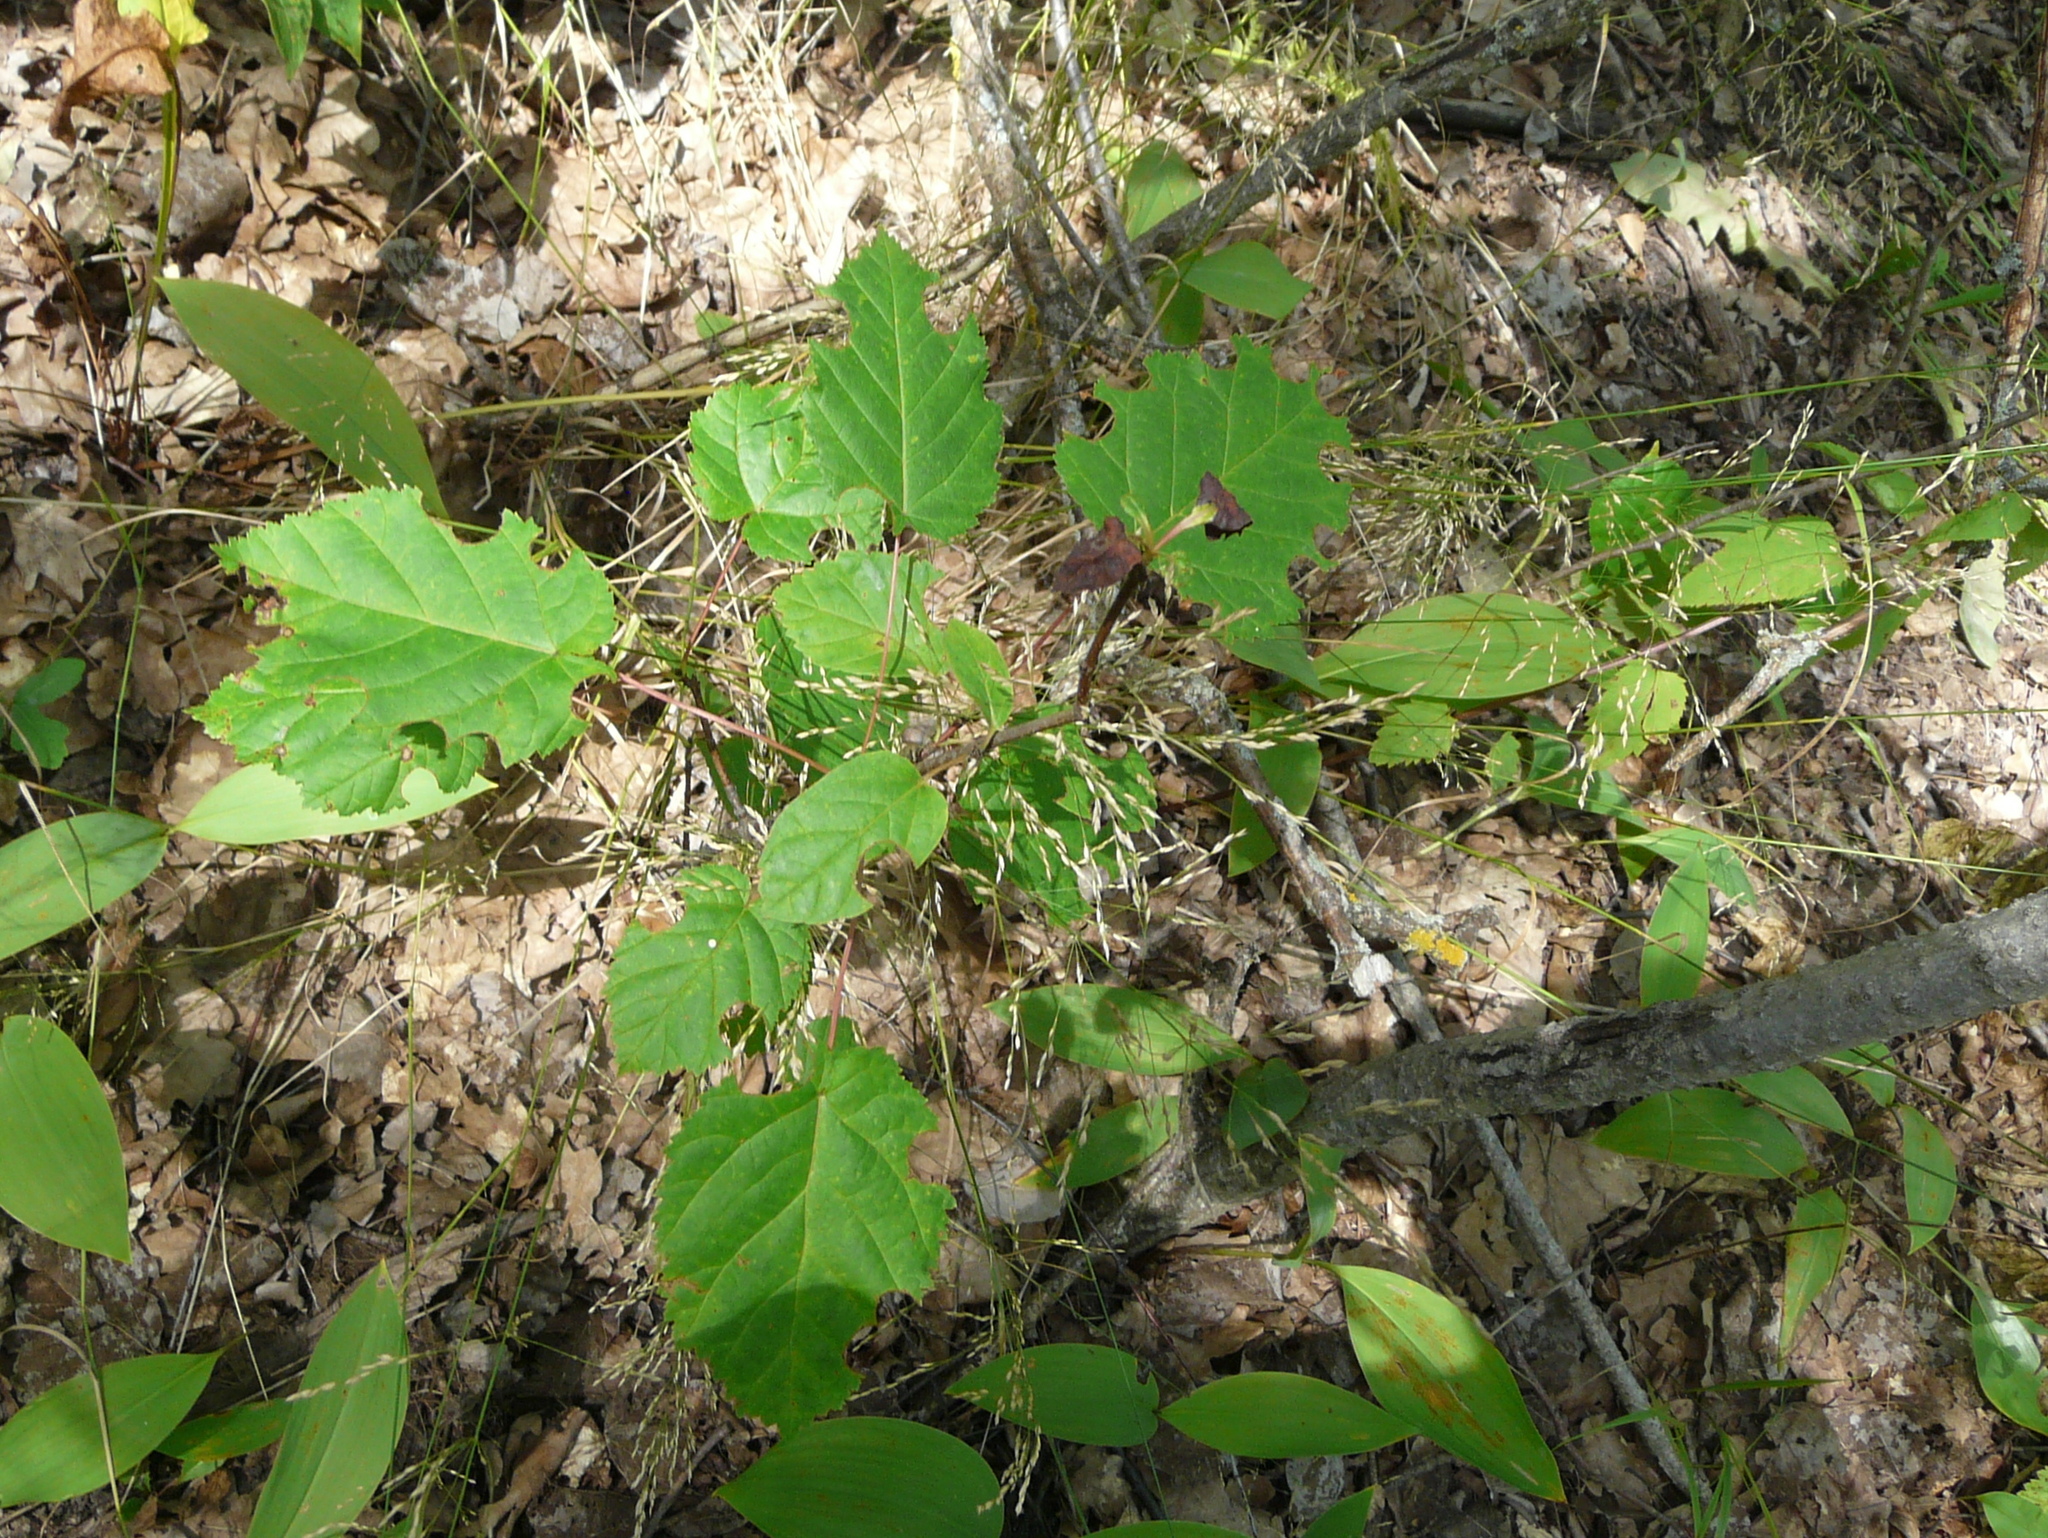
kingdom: Plantae
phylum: Tracheophyta
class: Magnoliopsida
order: Sapindales
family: Sapindaceae
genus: Acer
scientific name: Acer tataricum
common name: Tartar maple
